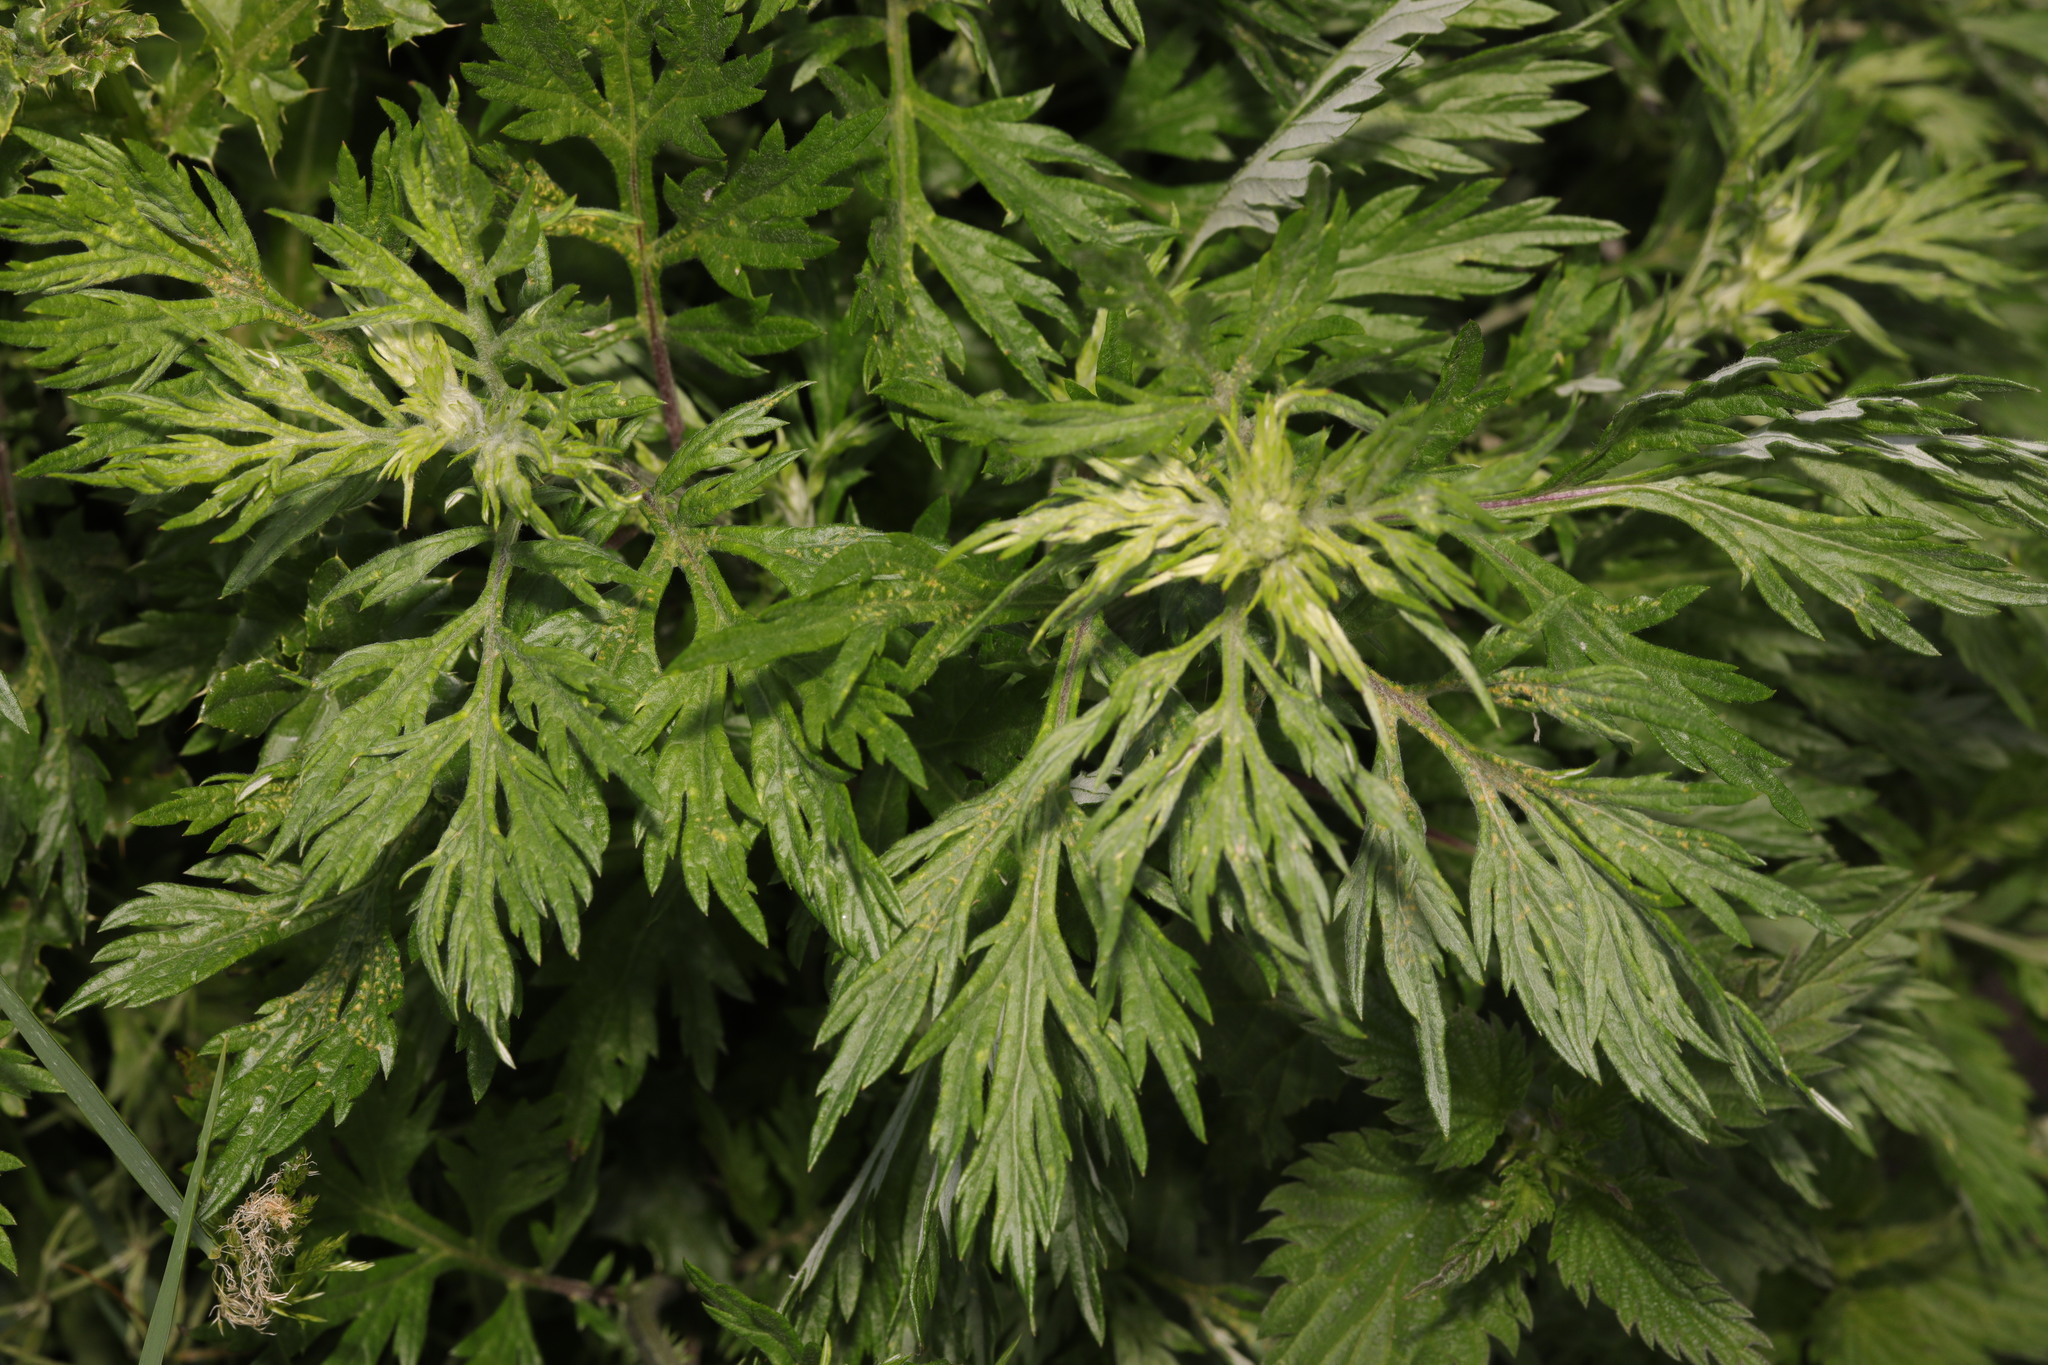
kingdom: Plantae
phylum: Tracheophyta
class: Magnoliopsida
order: Asterales
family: Asteraceae
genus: Artemisia
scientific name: Artemisia vulgaris
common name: Mugwort
